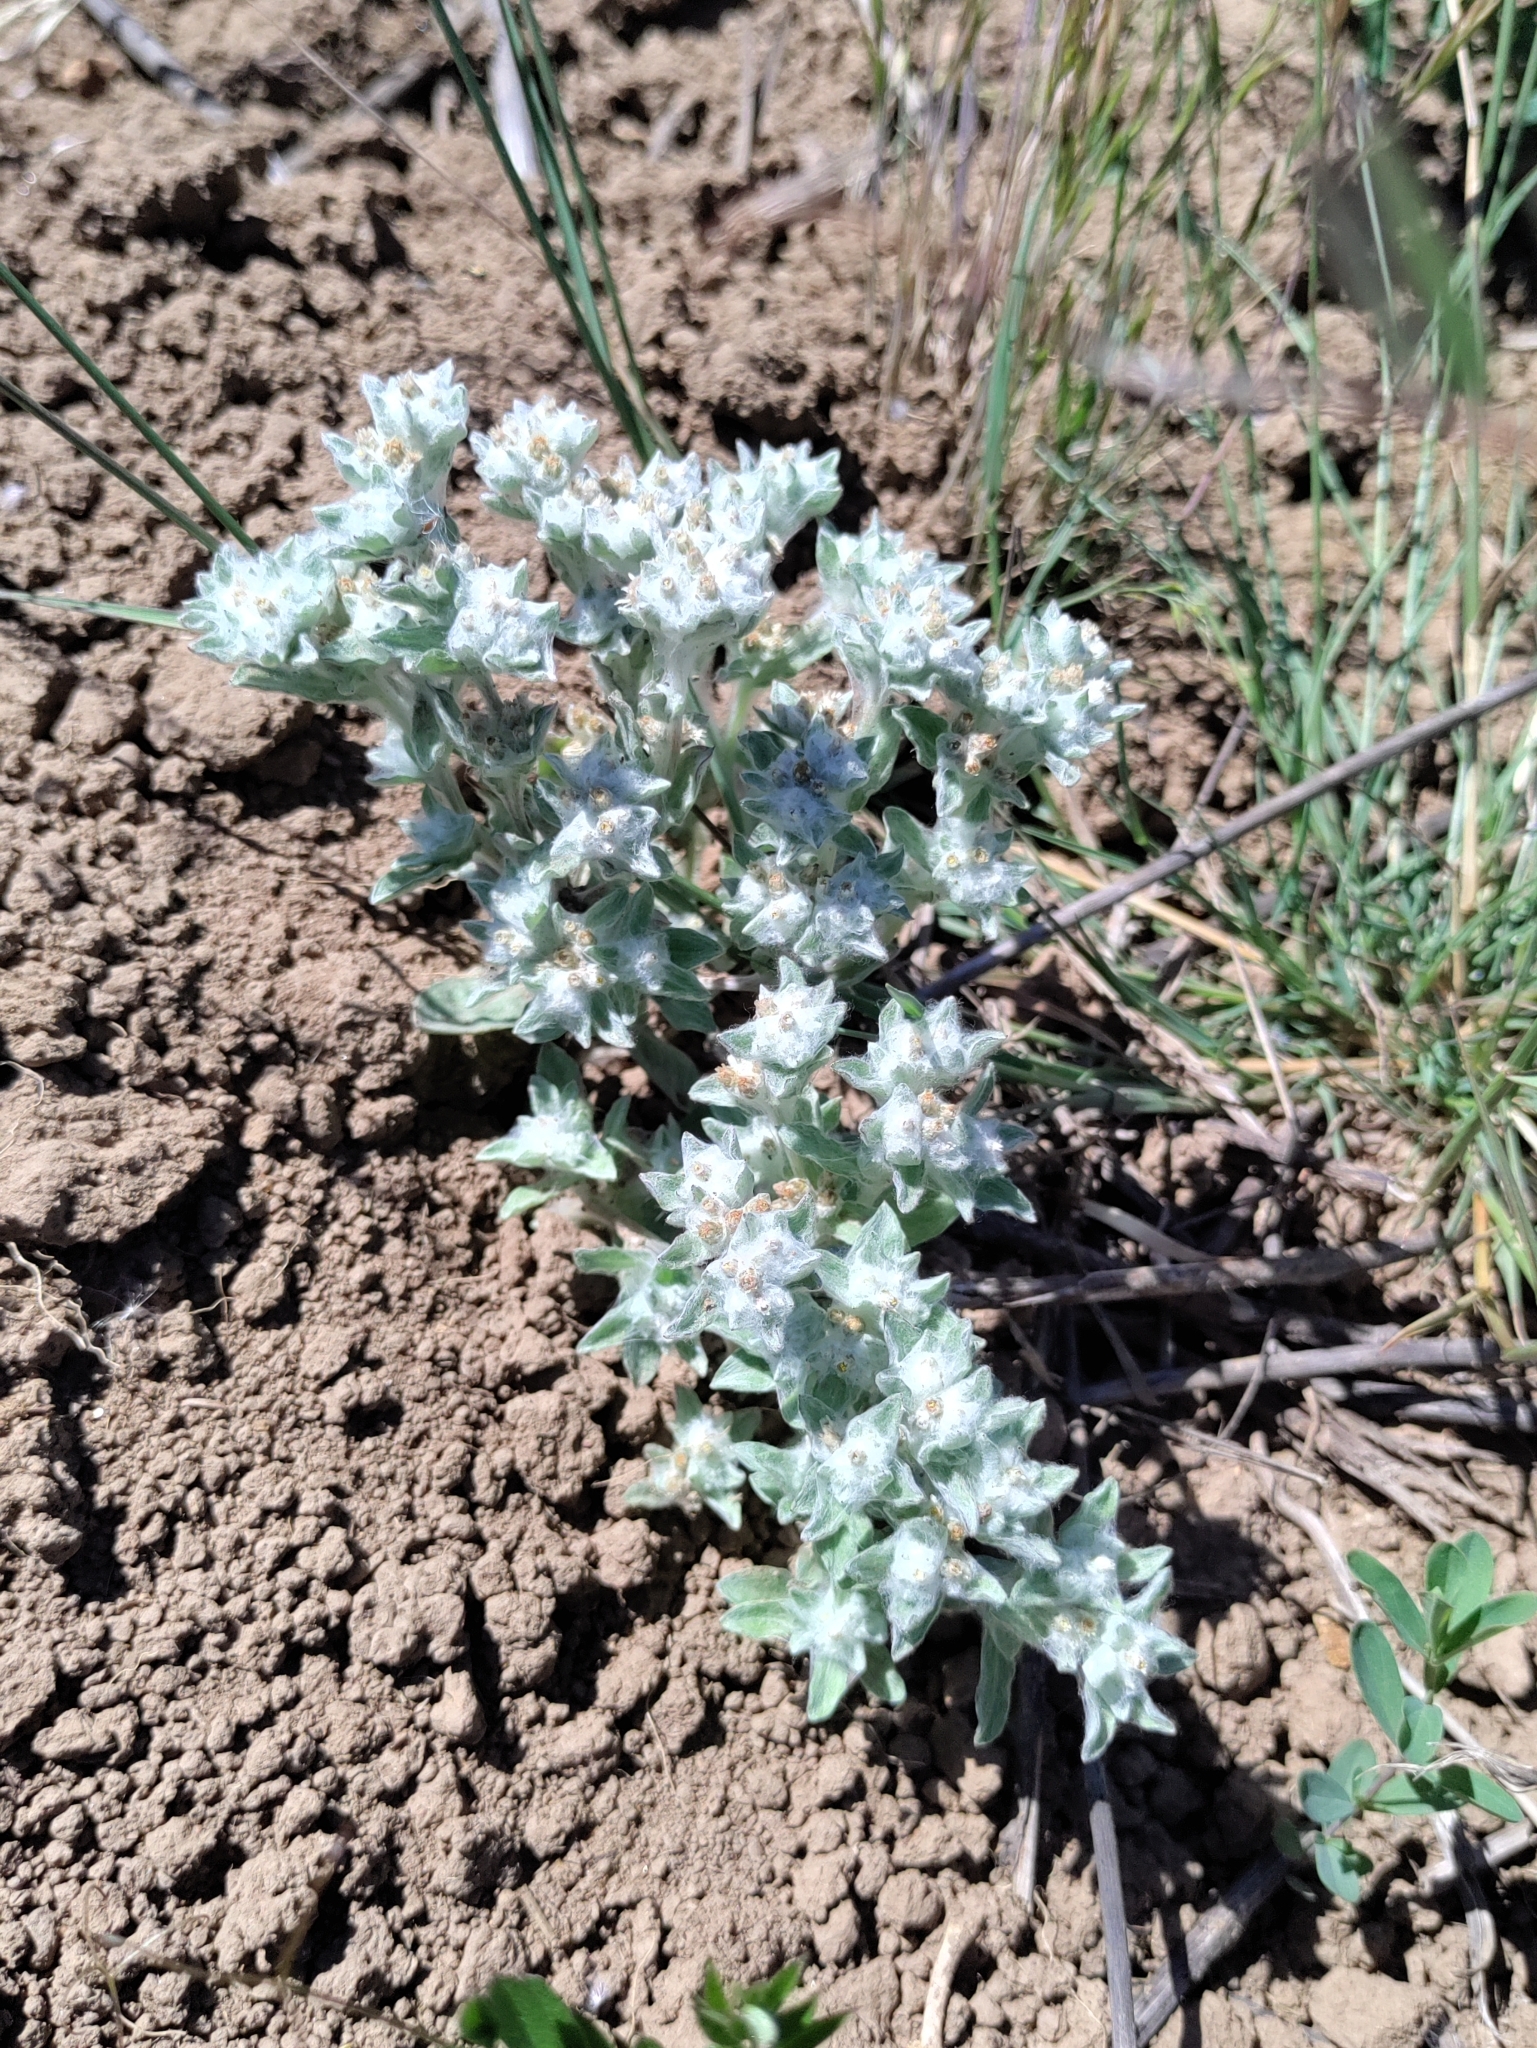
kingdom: Plantae
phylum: Tracheophyta
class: Magnoliopsida
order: Asterales
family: Asteraceae
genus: Gnaphalium
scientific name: Gnaphalium palustre
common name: Western marsh cudweed
